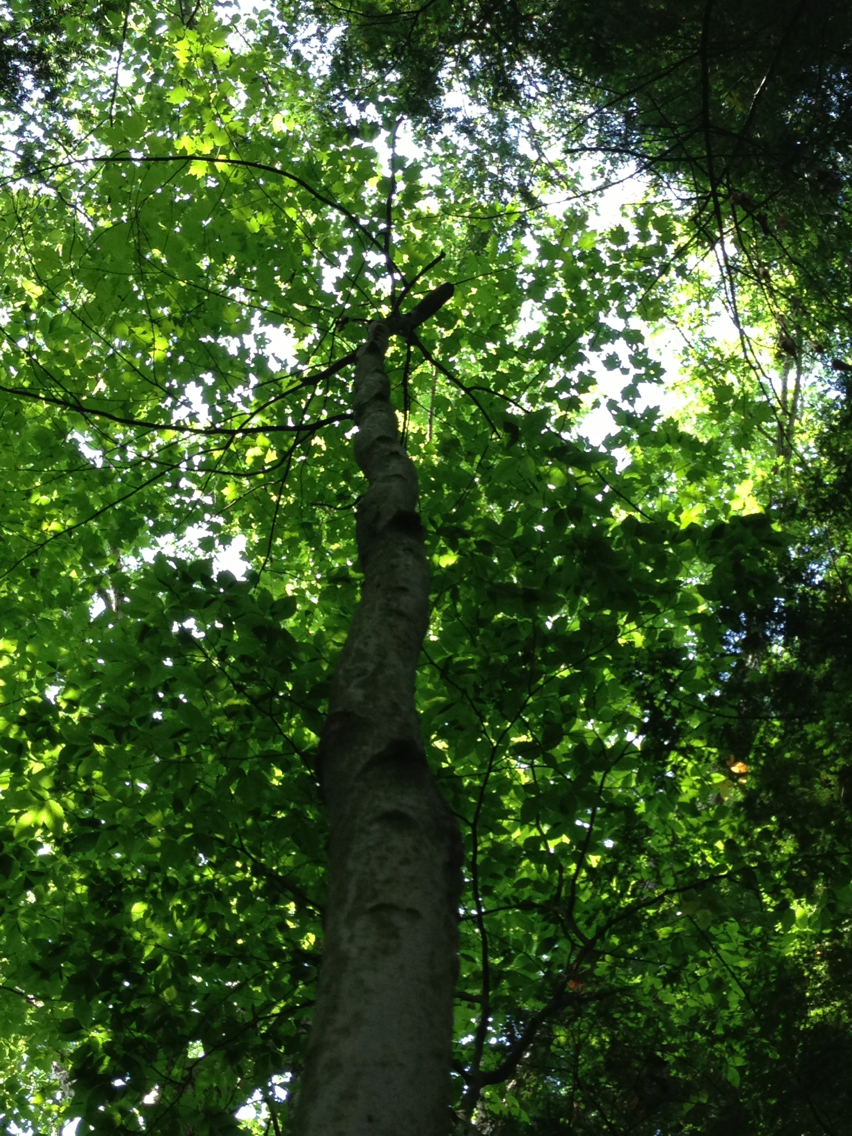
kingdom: Plantae
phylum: Tracheophyta
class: Magnoliopsida
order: Sapindales
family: Sapindaceae
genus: Acer
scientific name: Acer rubrum
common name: Red maple
